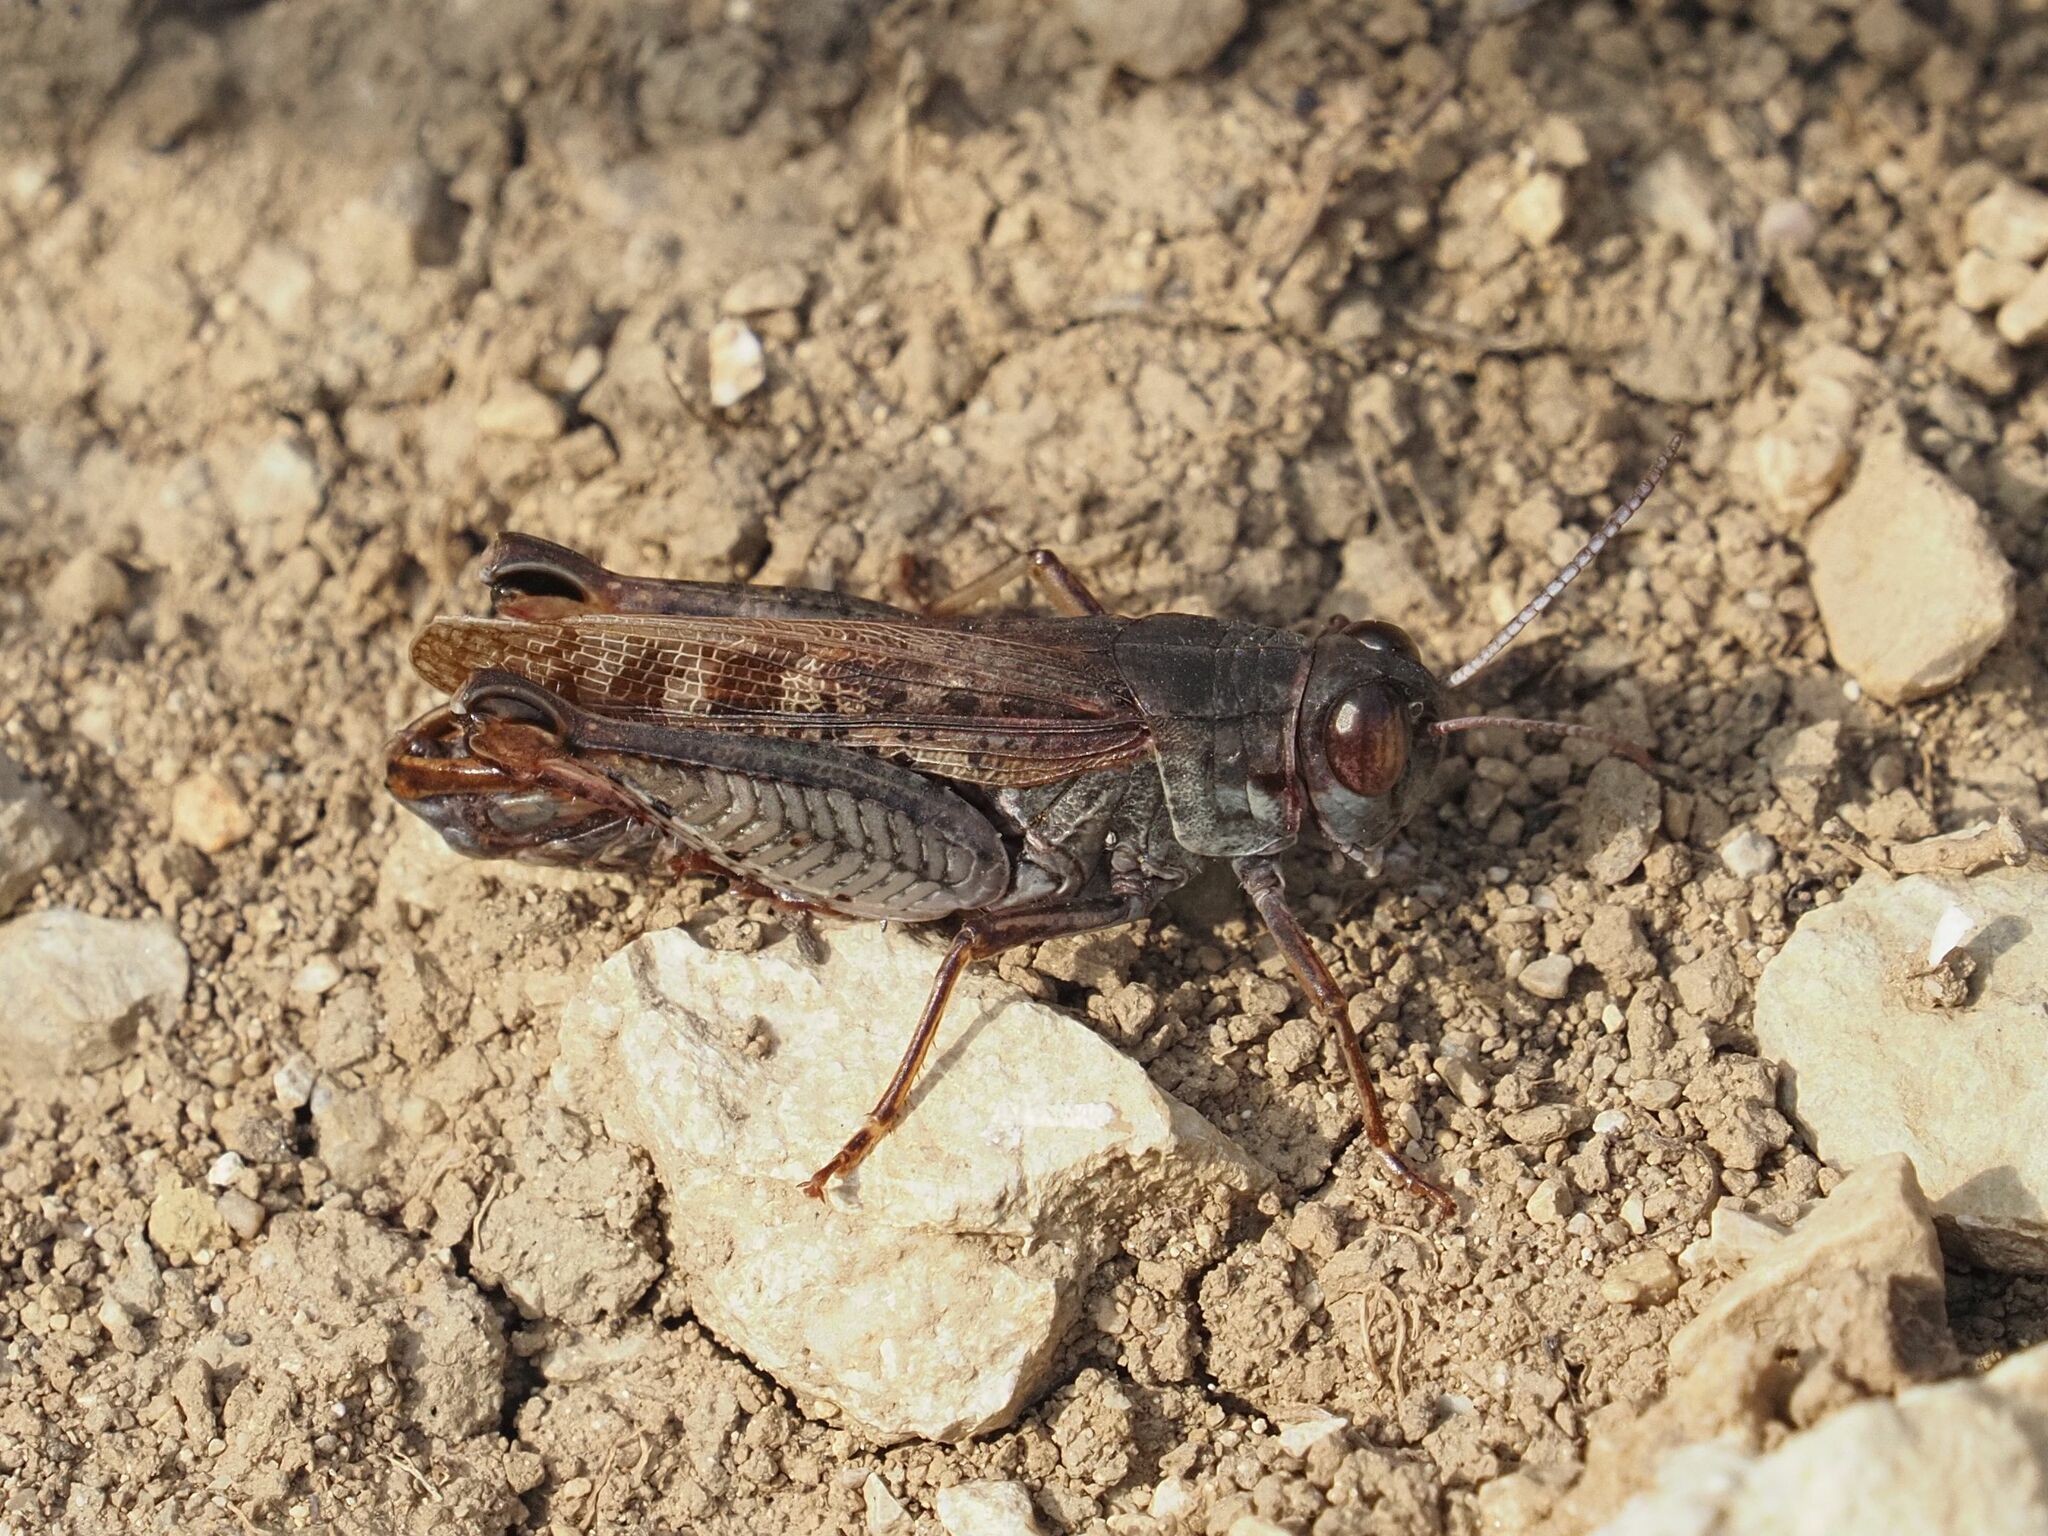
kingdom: Animalia
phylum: Arthropoda
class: Insecta
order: Orthoptera
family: Acrididae
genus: Calliptamus
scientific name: Calliptamus italicus
